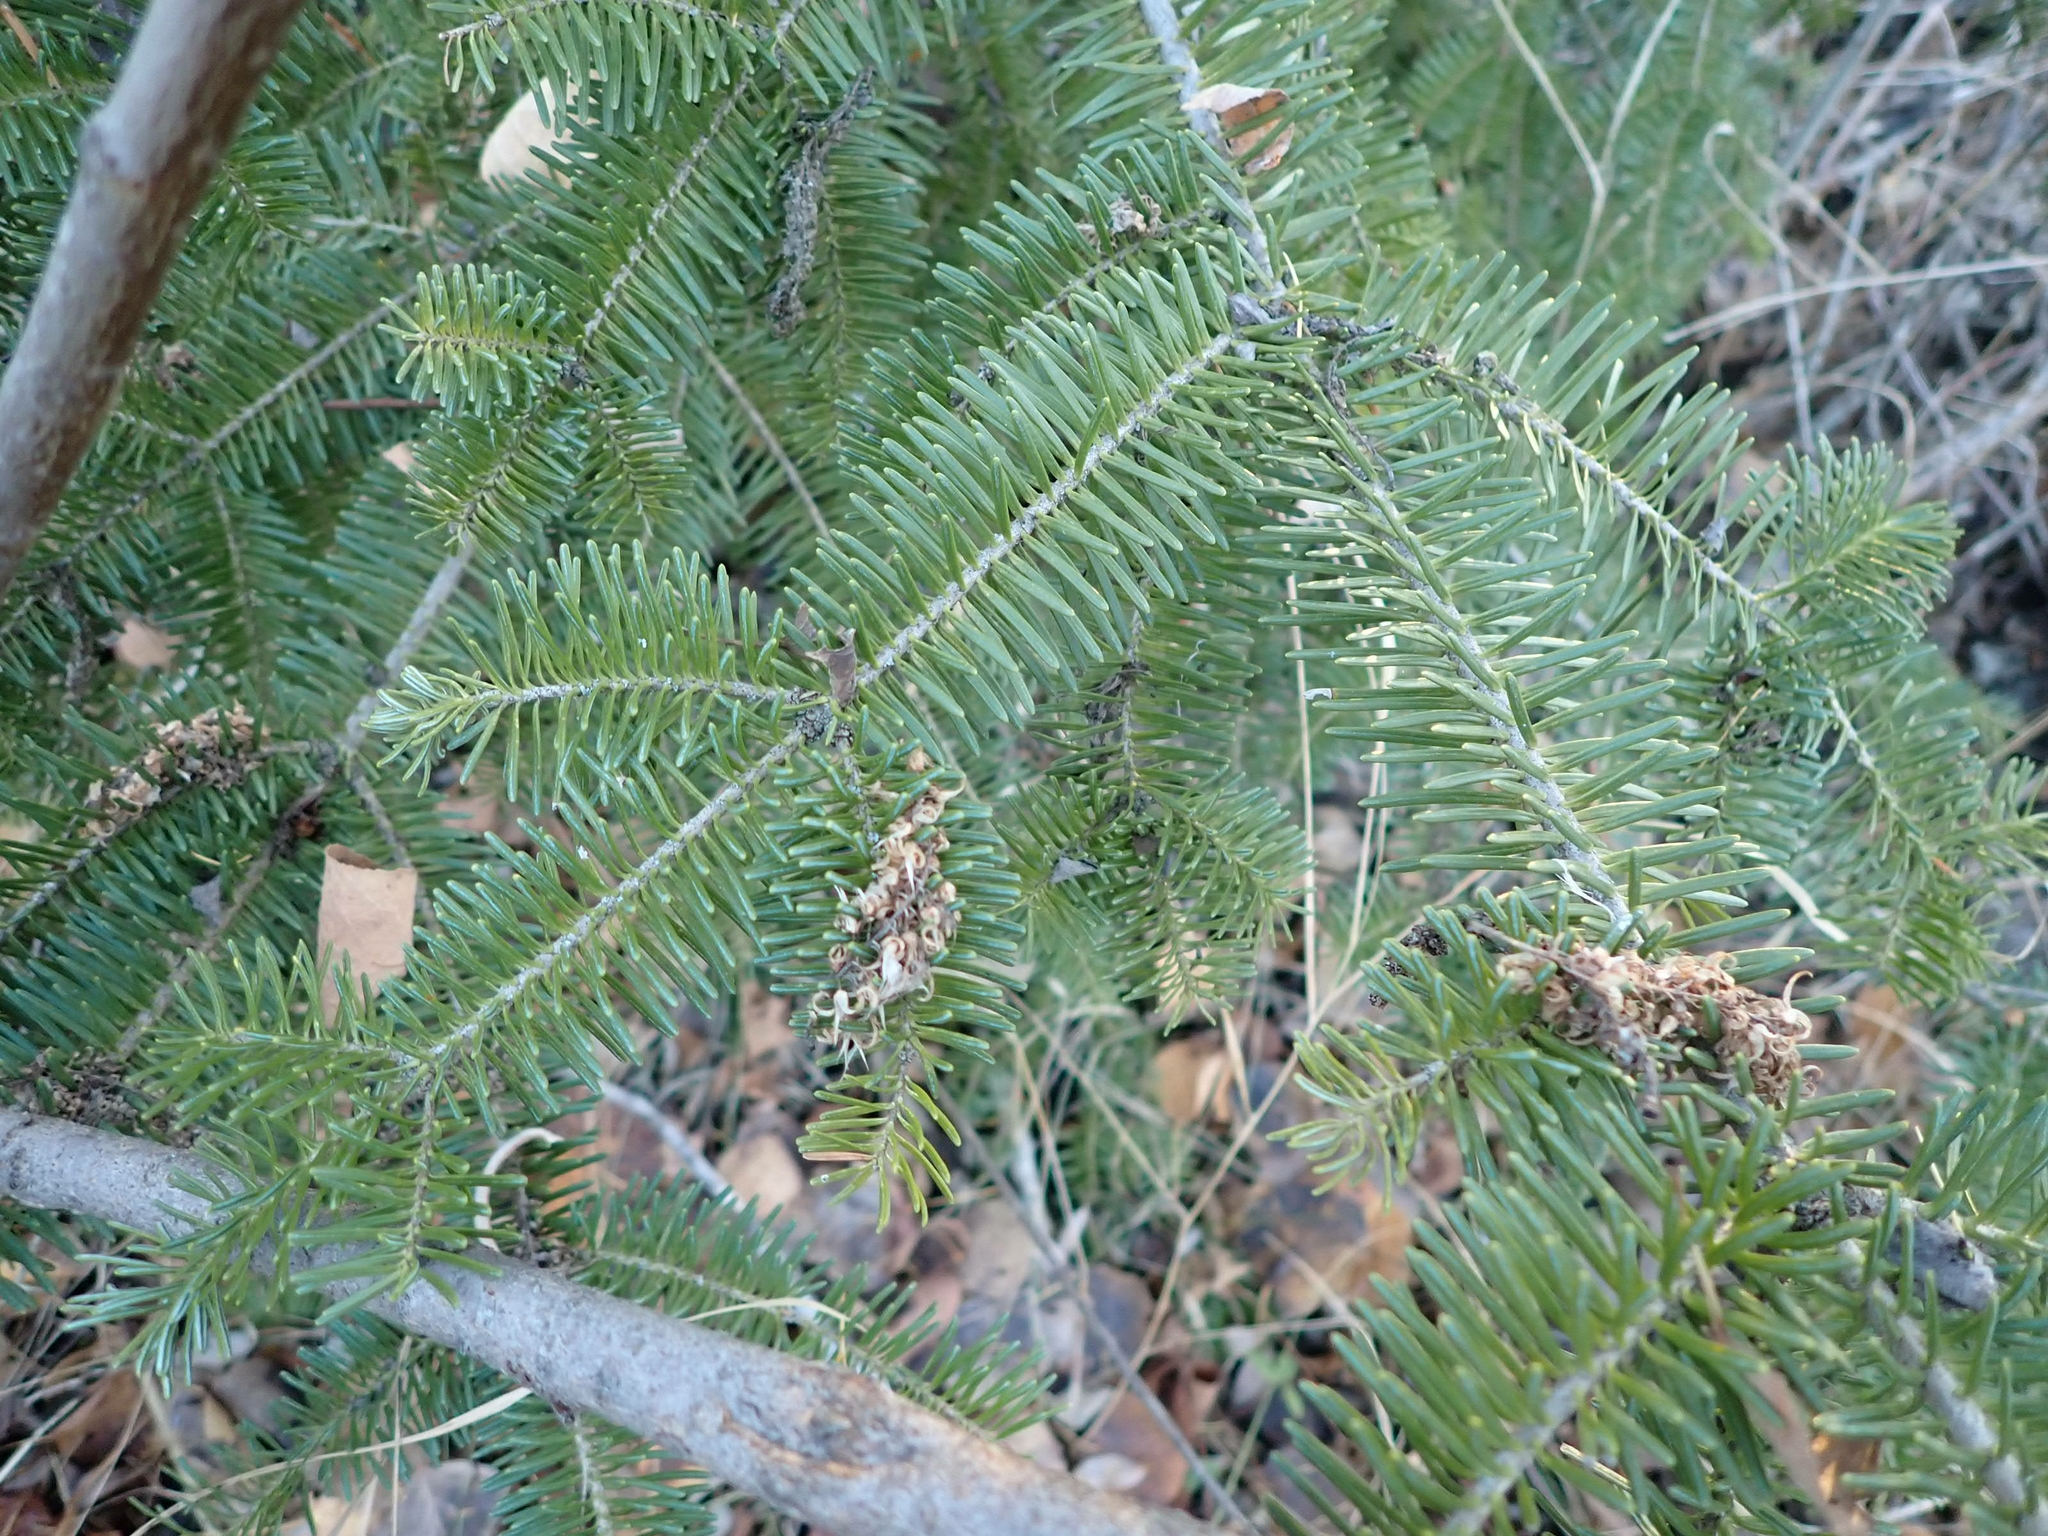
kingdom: Plantae
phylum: Tracheophyta
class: Pinopsida
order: Pinales
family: Pinaceae
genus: Abies
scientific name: Abies balsamea
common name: Balsam fir
